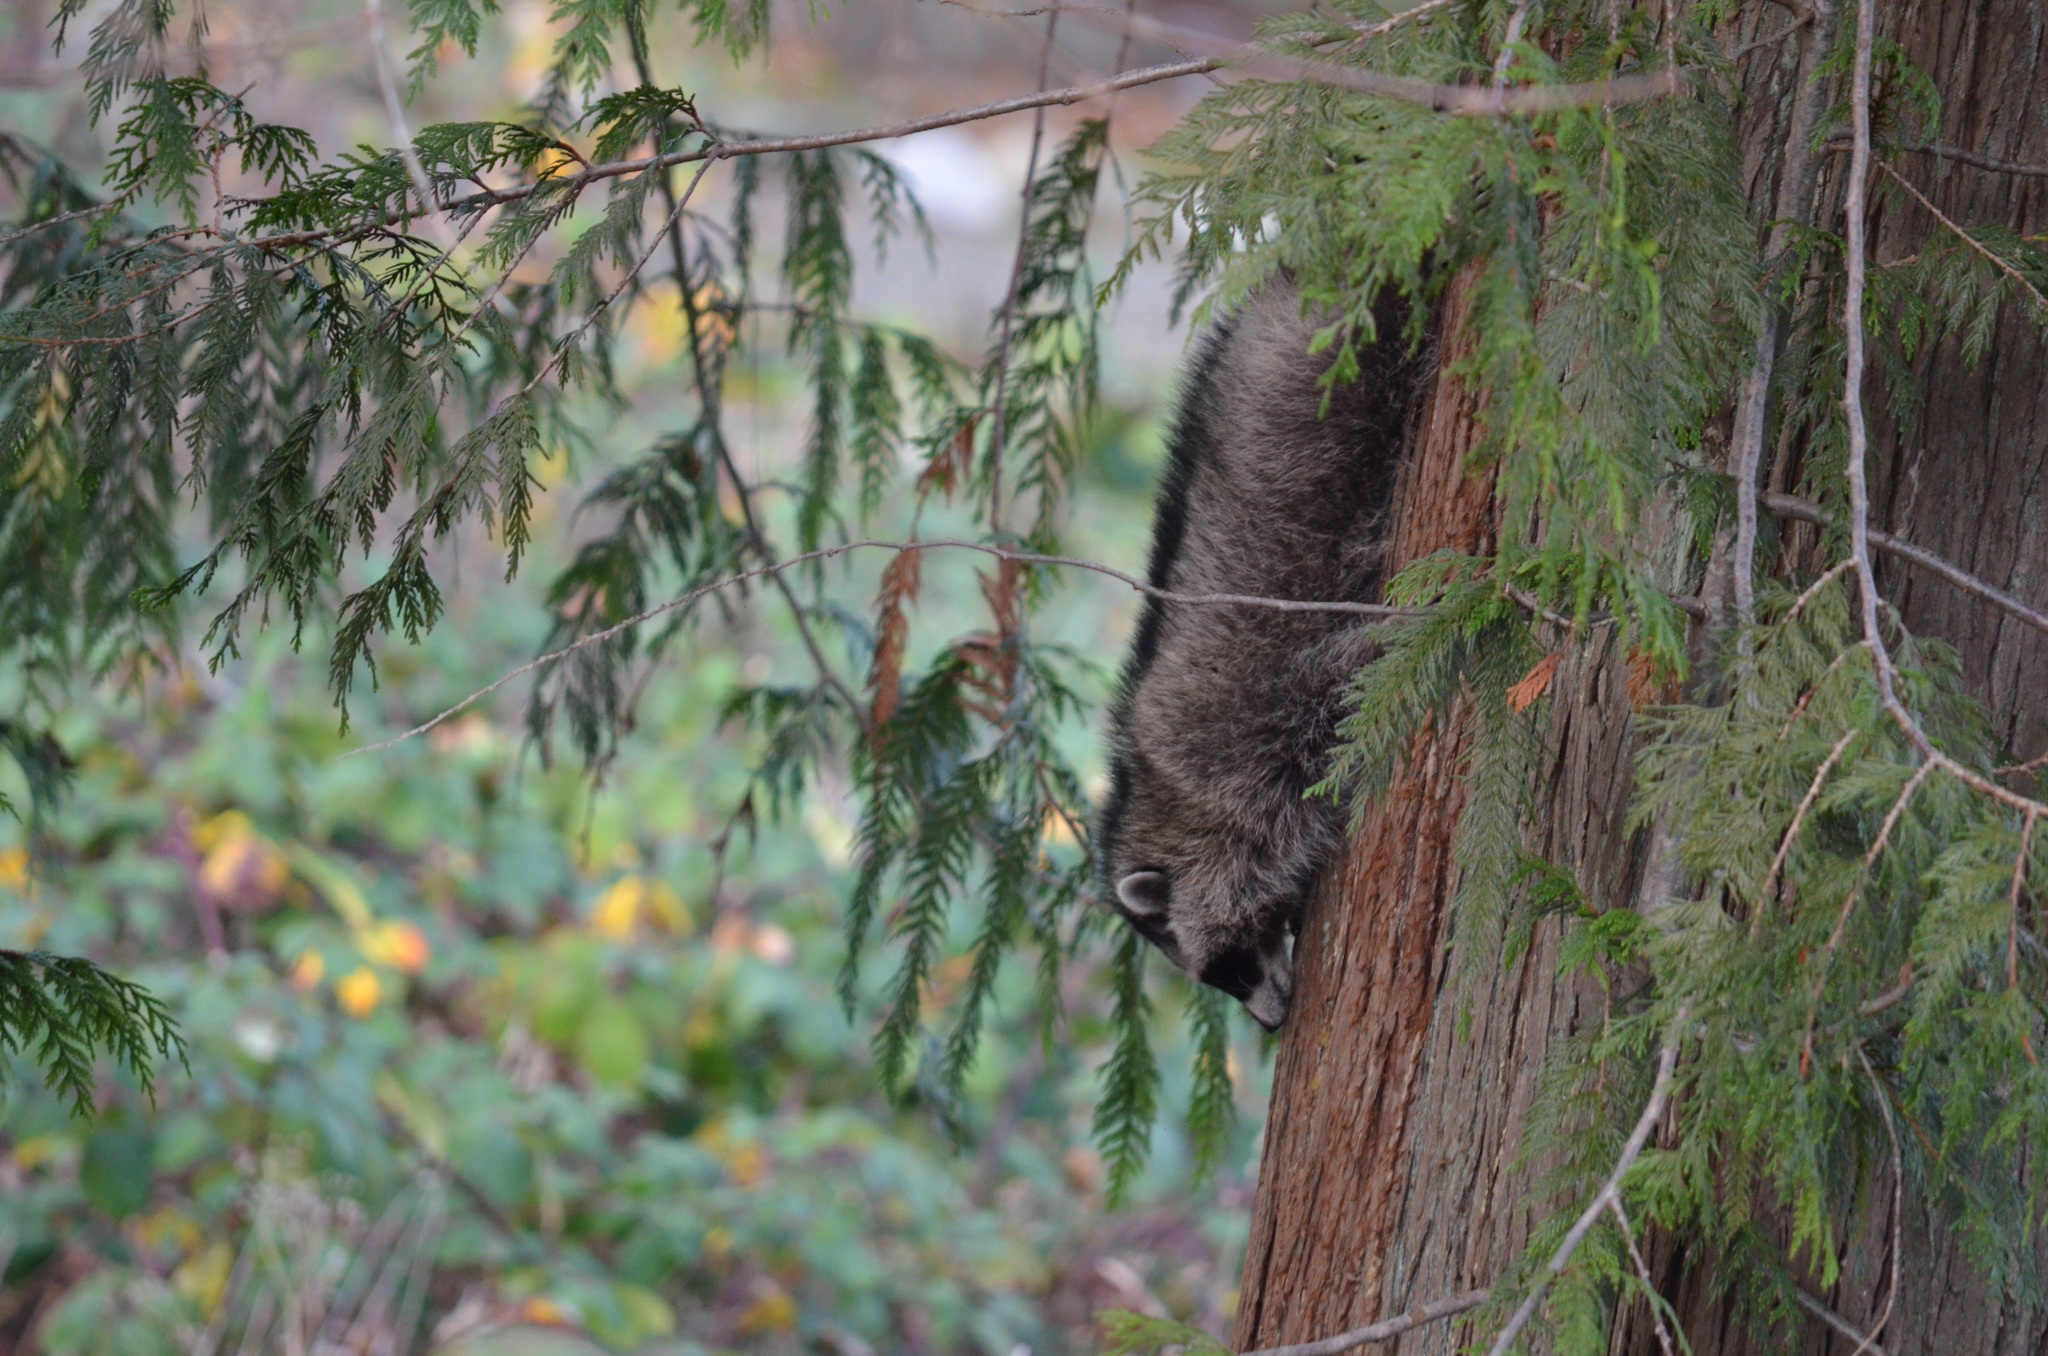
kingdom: Animalia
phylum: Chordata
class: Mammalia
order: Carnivora
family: Procyonidae
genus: Procyon
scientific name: Procyon lotor
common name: Raccoon
